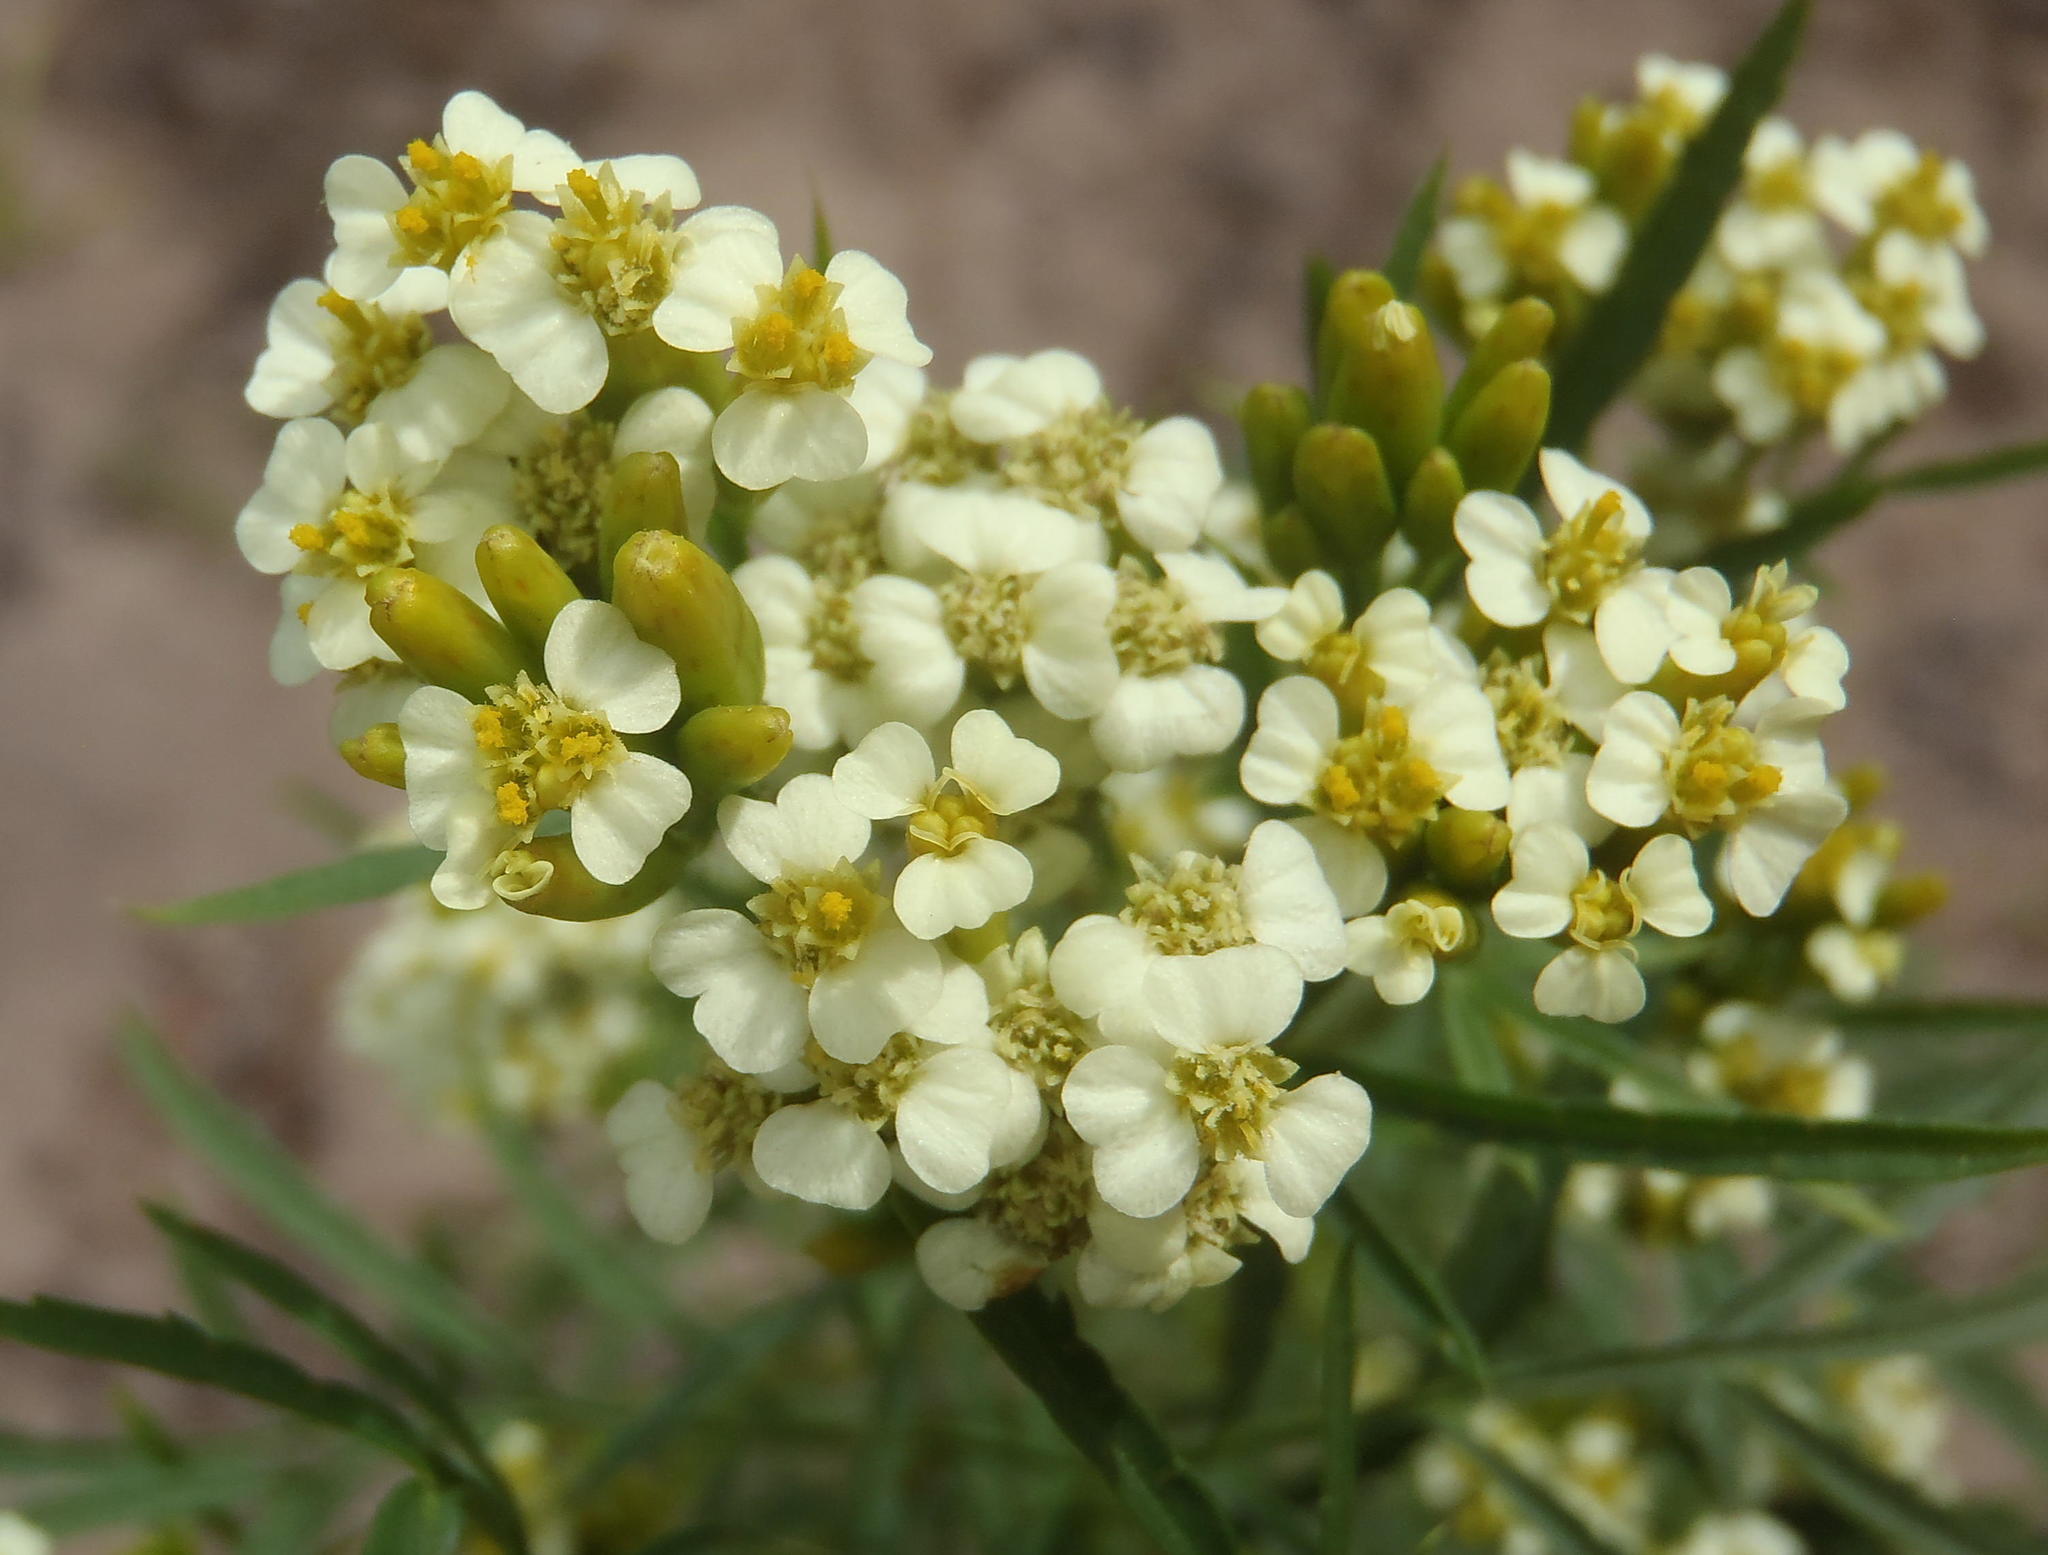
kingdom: Plantae
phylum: Tracheophyta
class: Magnoliopsida
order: Asterales
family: Asteraceae
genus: Tagetes
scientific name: Tagetes minuta
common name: Muster john henry
